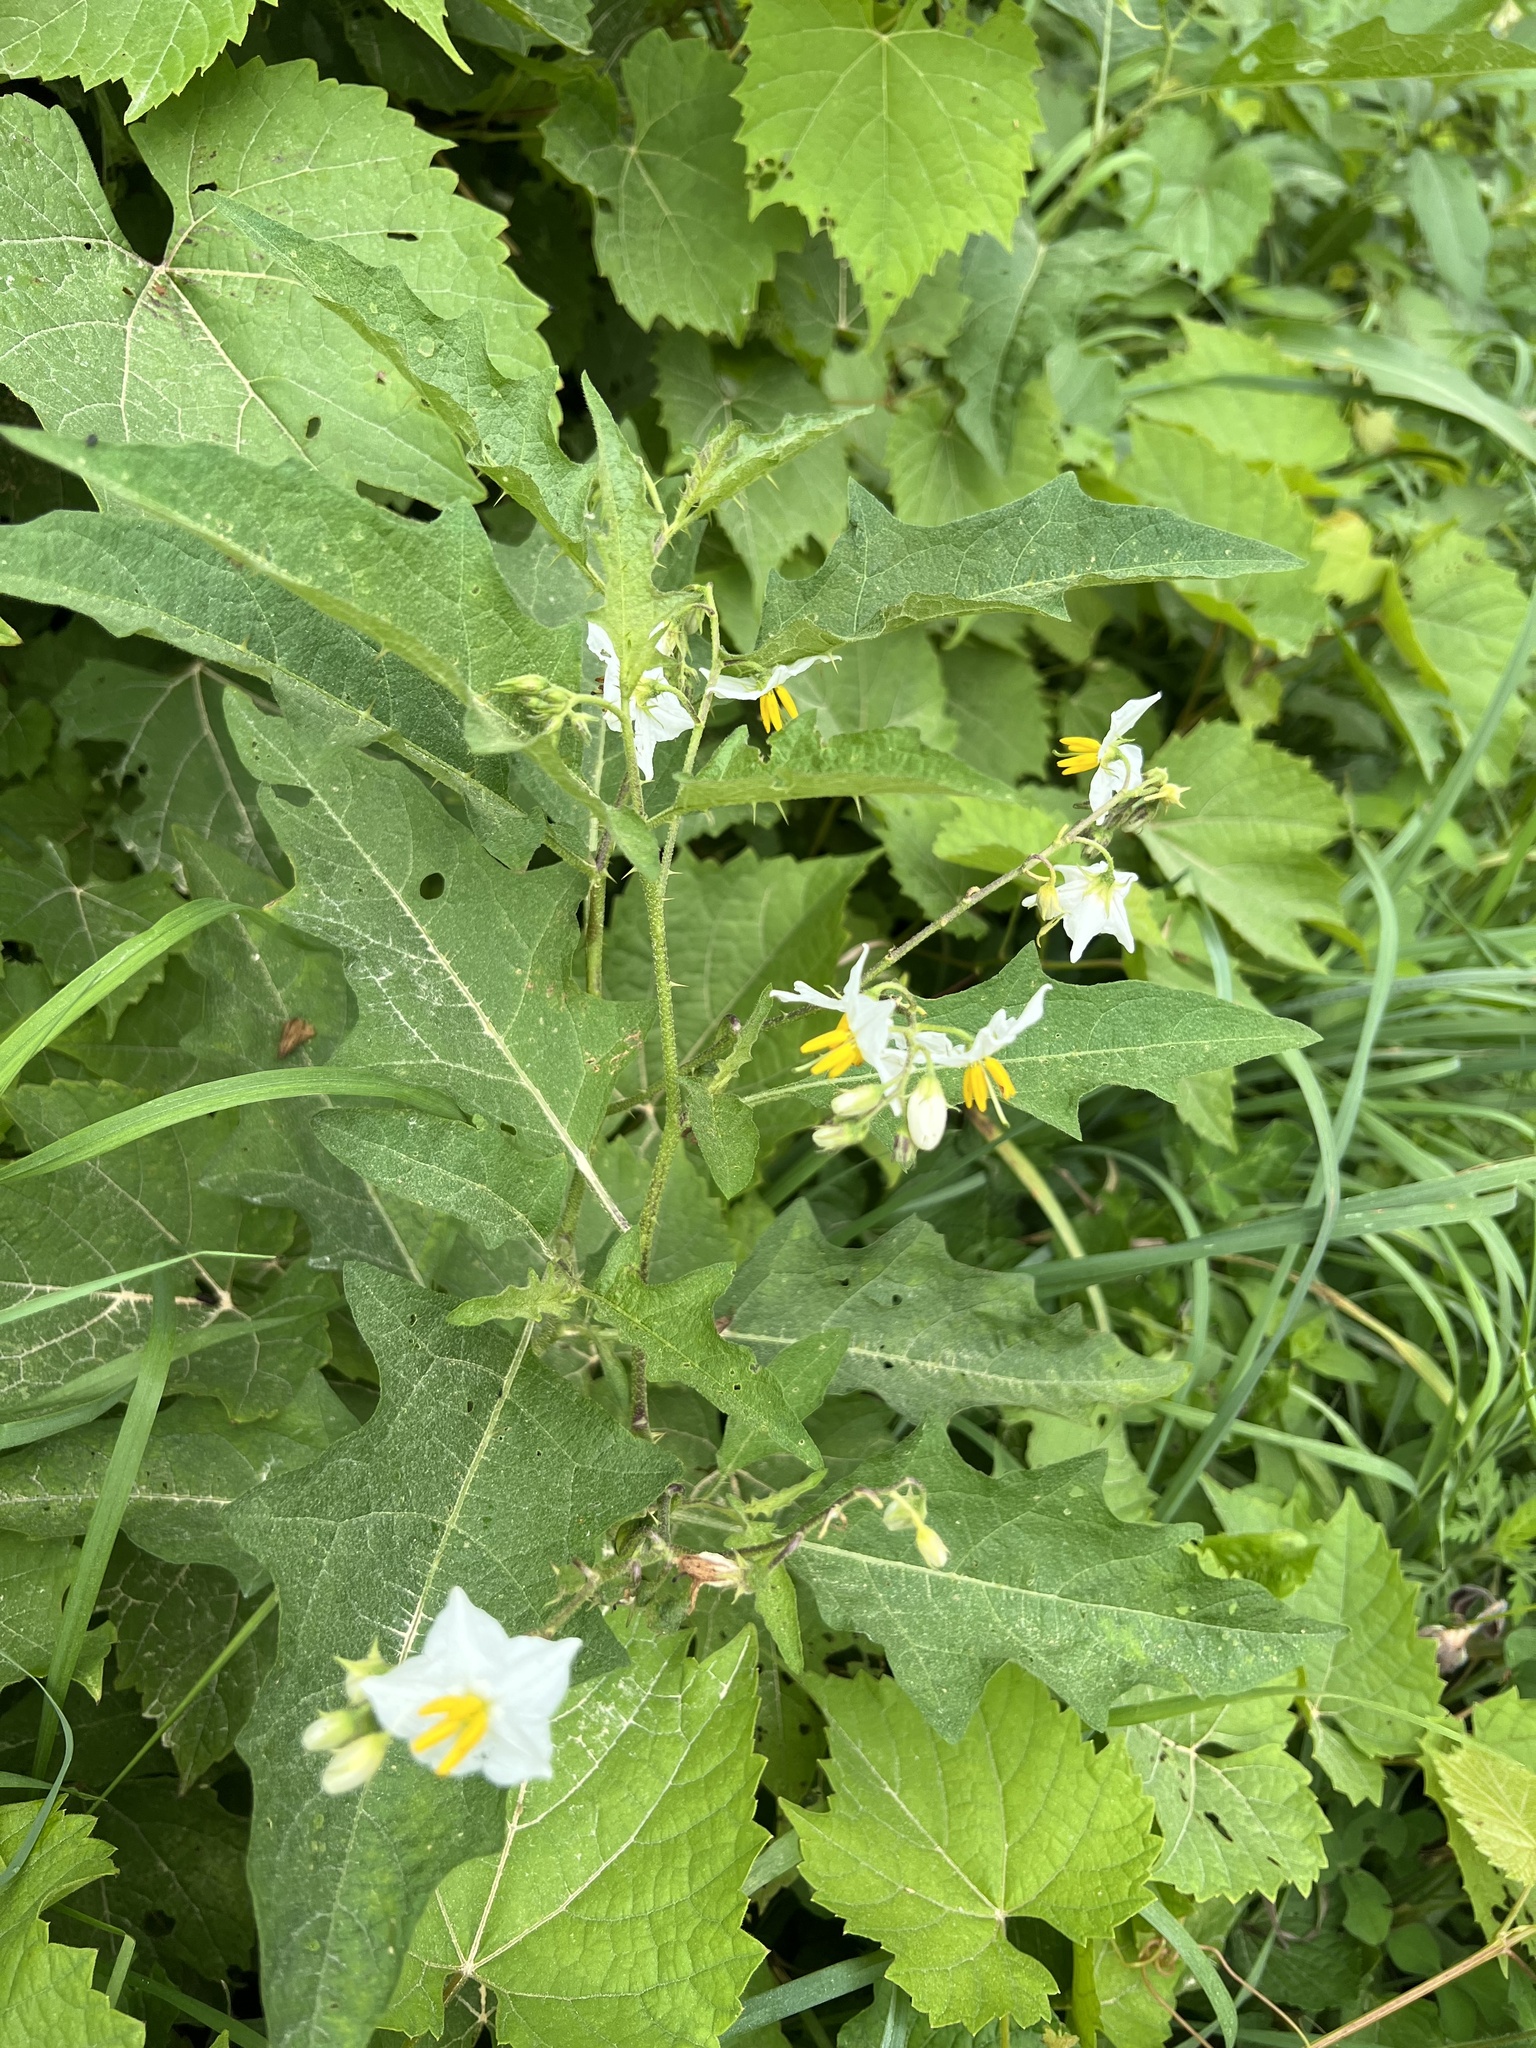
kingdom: Plantae
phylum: Tracheophyta
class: Magnoliopsida
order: Solanales
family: Solanaceae
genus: Solanum
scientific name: Solanum carolinense
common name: Horse-nettle
